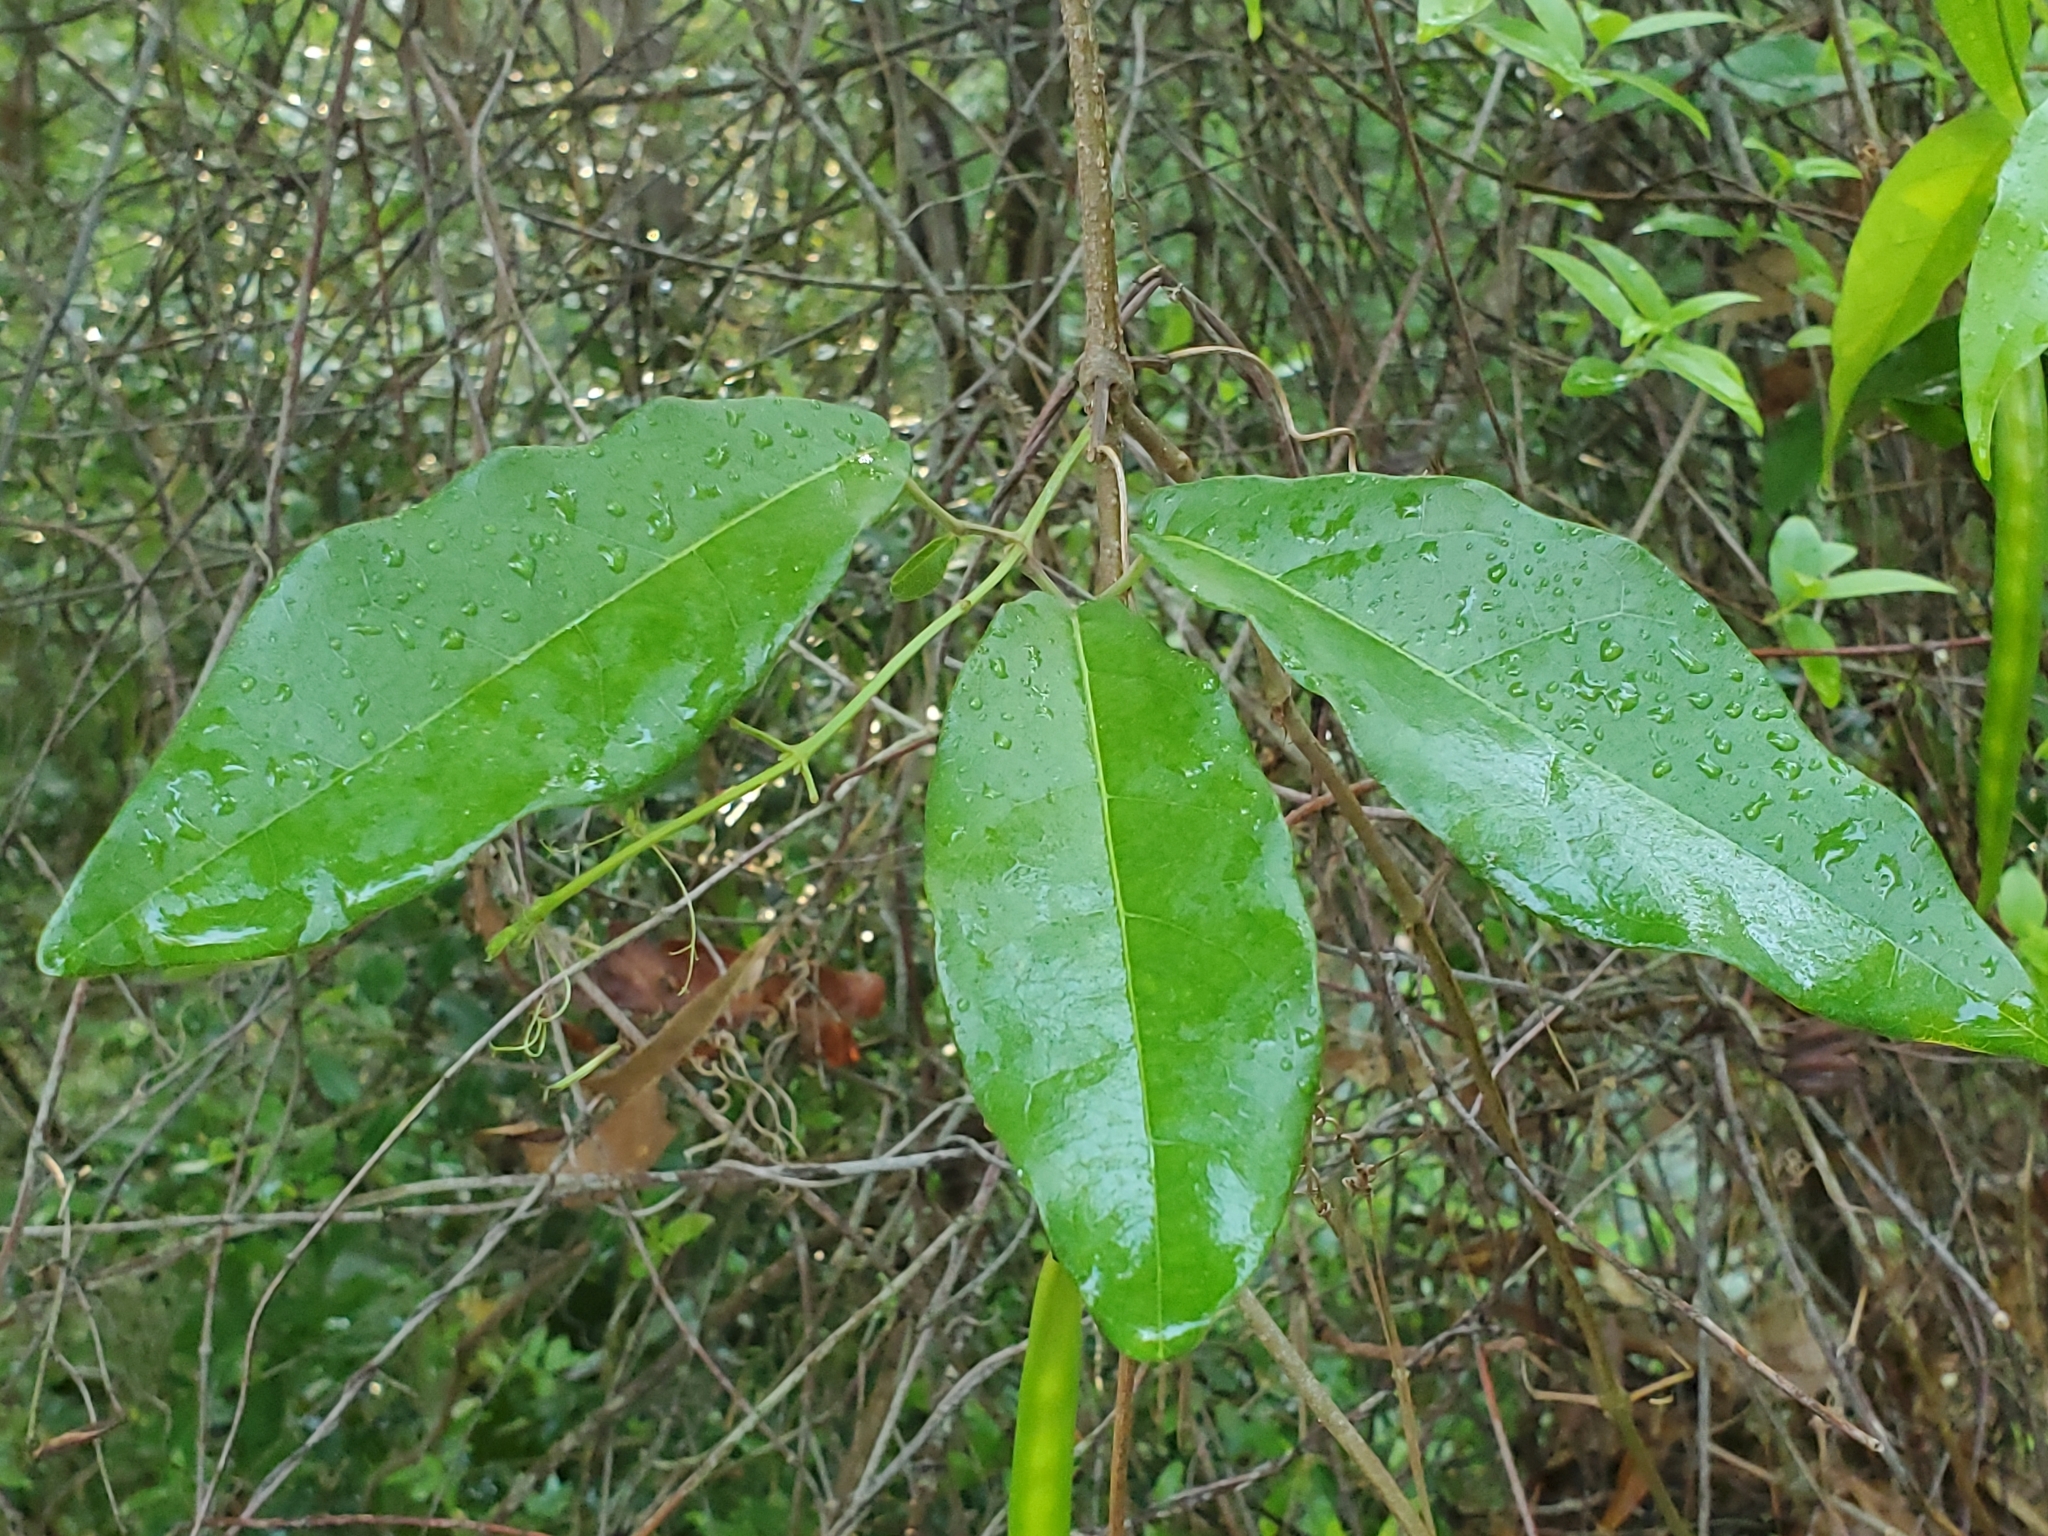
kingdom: Plantae
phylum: Tracheophyta
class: Magnoliopsida
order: Lamiales
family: Bignoniaceae
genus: Bignonia
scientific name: Bignonia capreolata
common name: Crossvine
